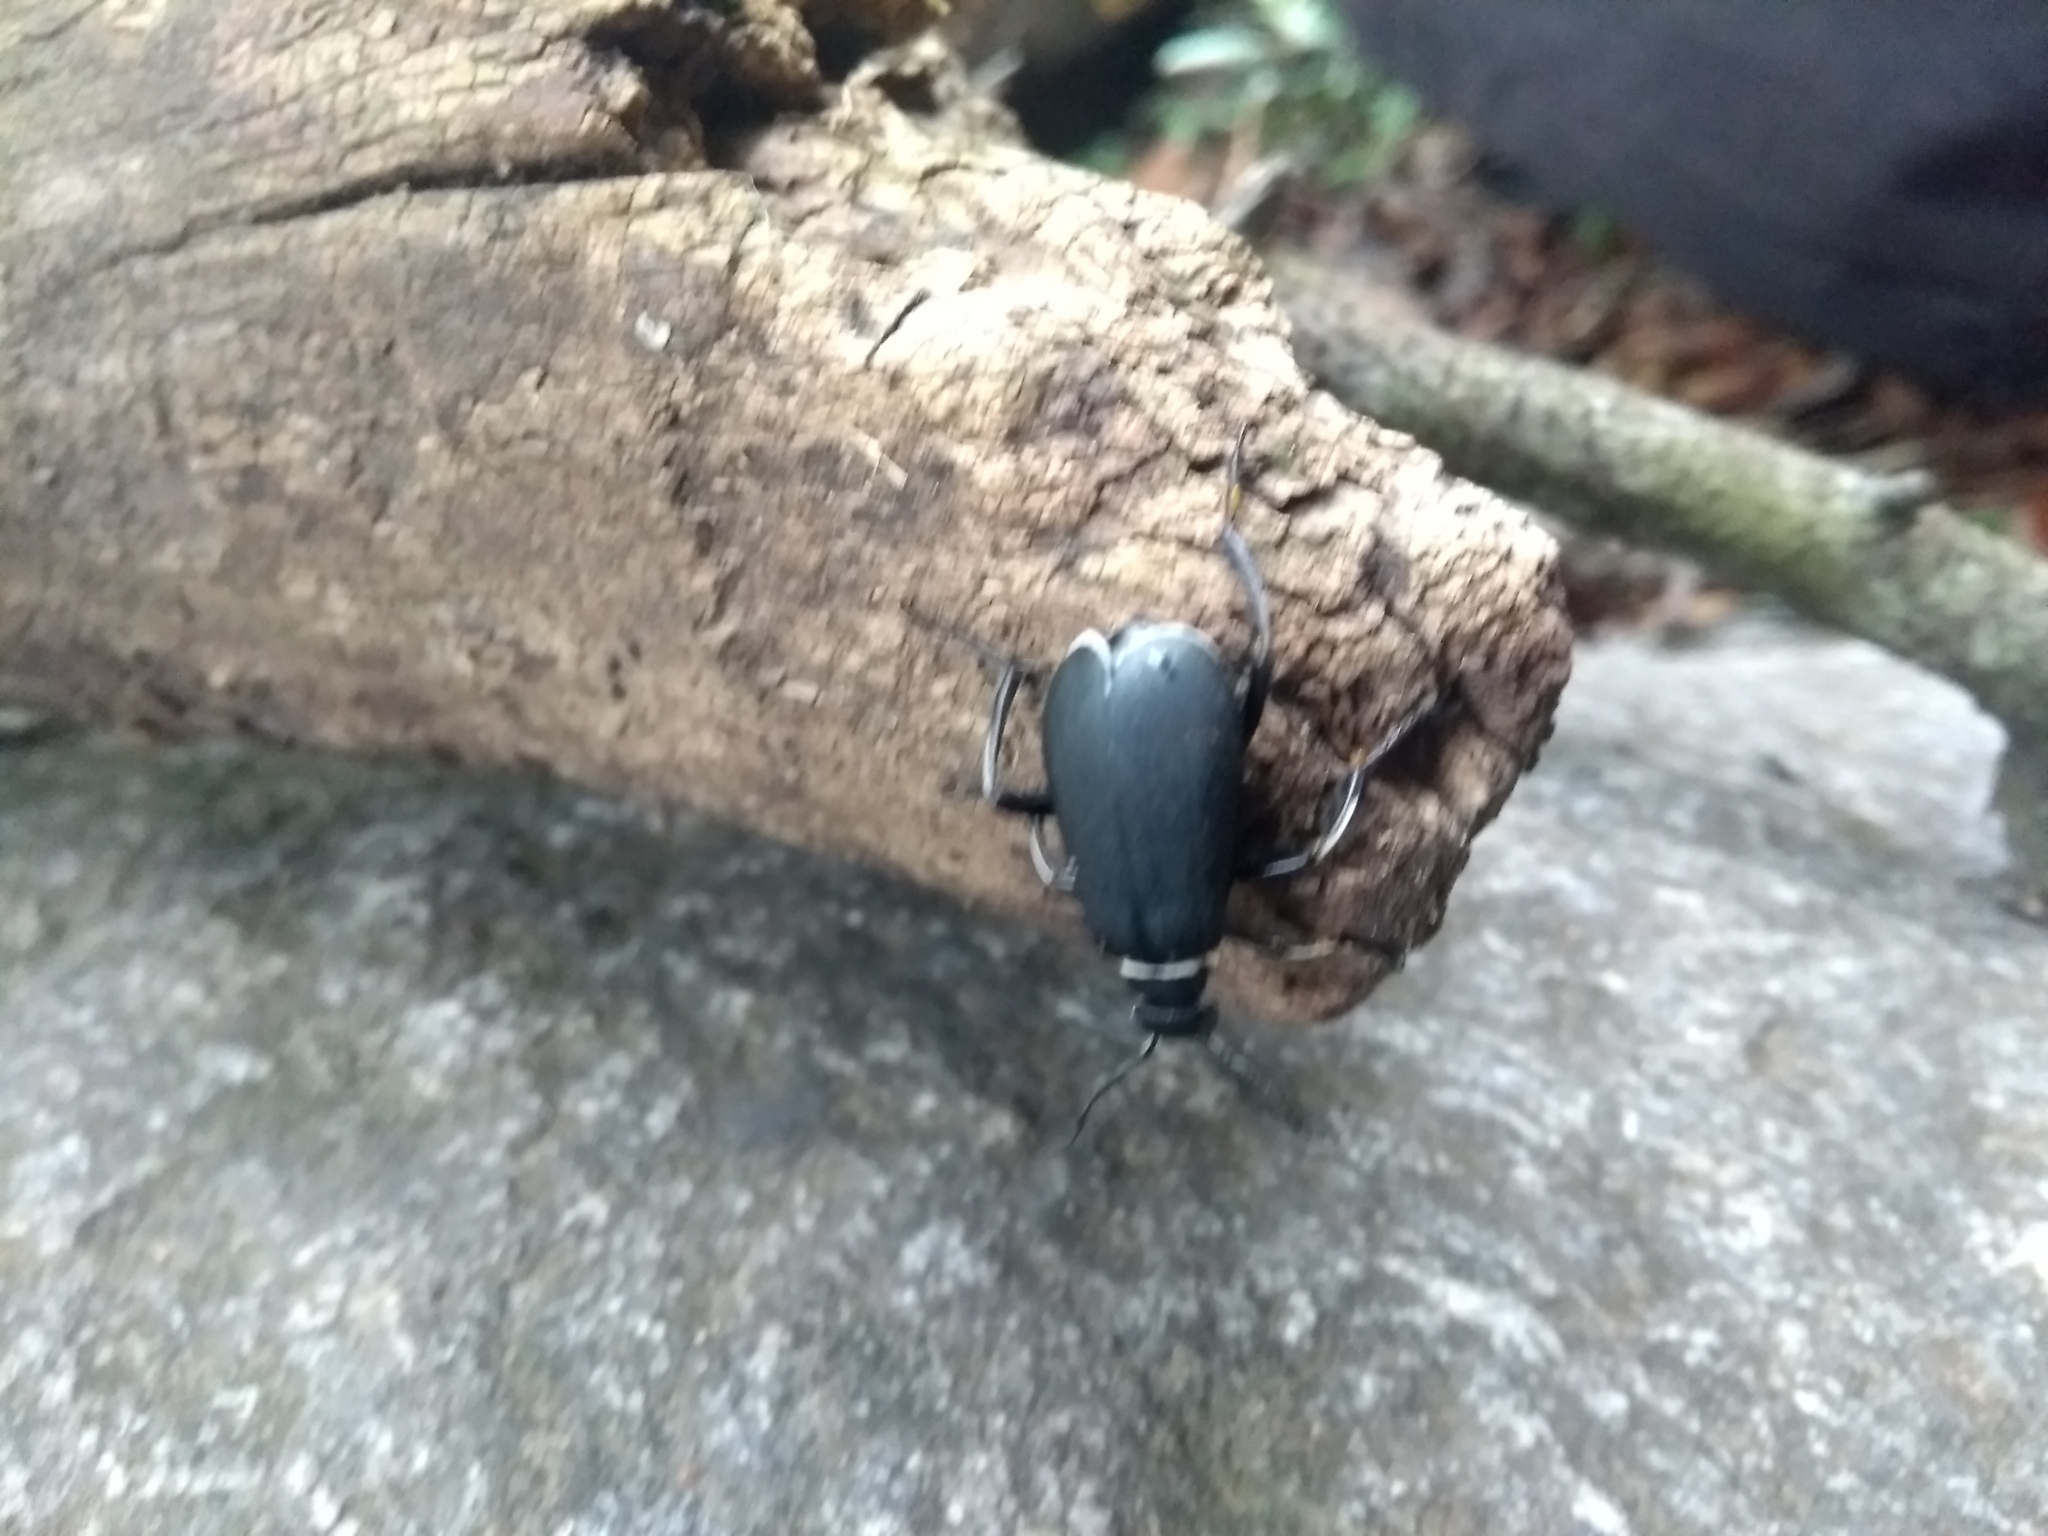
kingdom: Animalia
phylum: Arthropoda
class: Insecta
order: Coleoptera
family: Meloidae
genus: Epicauta
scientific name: Epicauta
